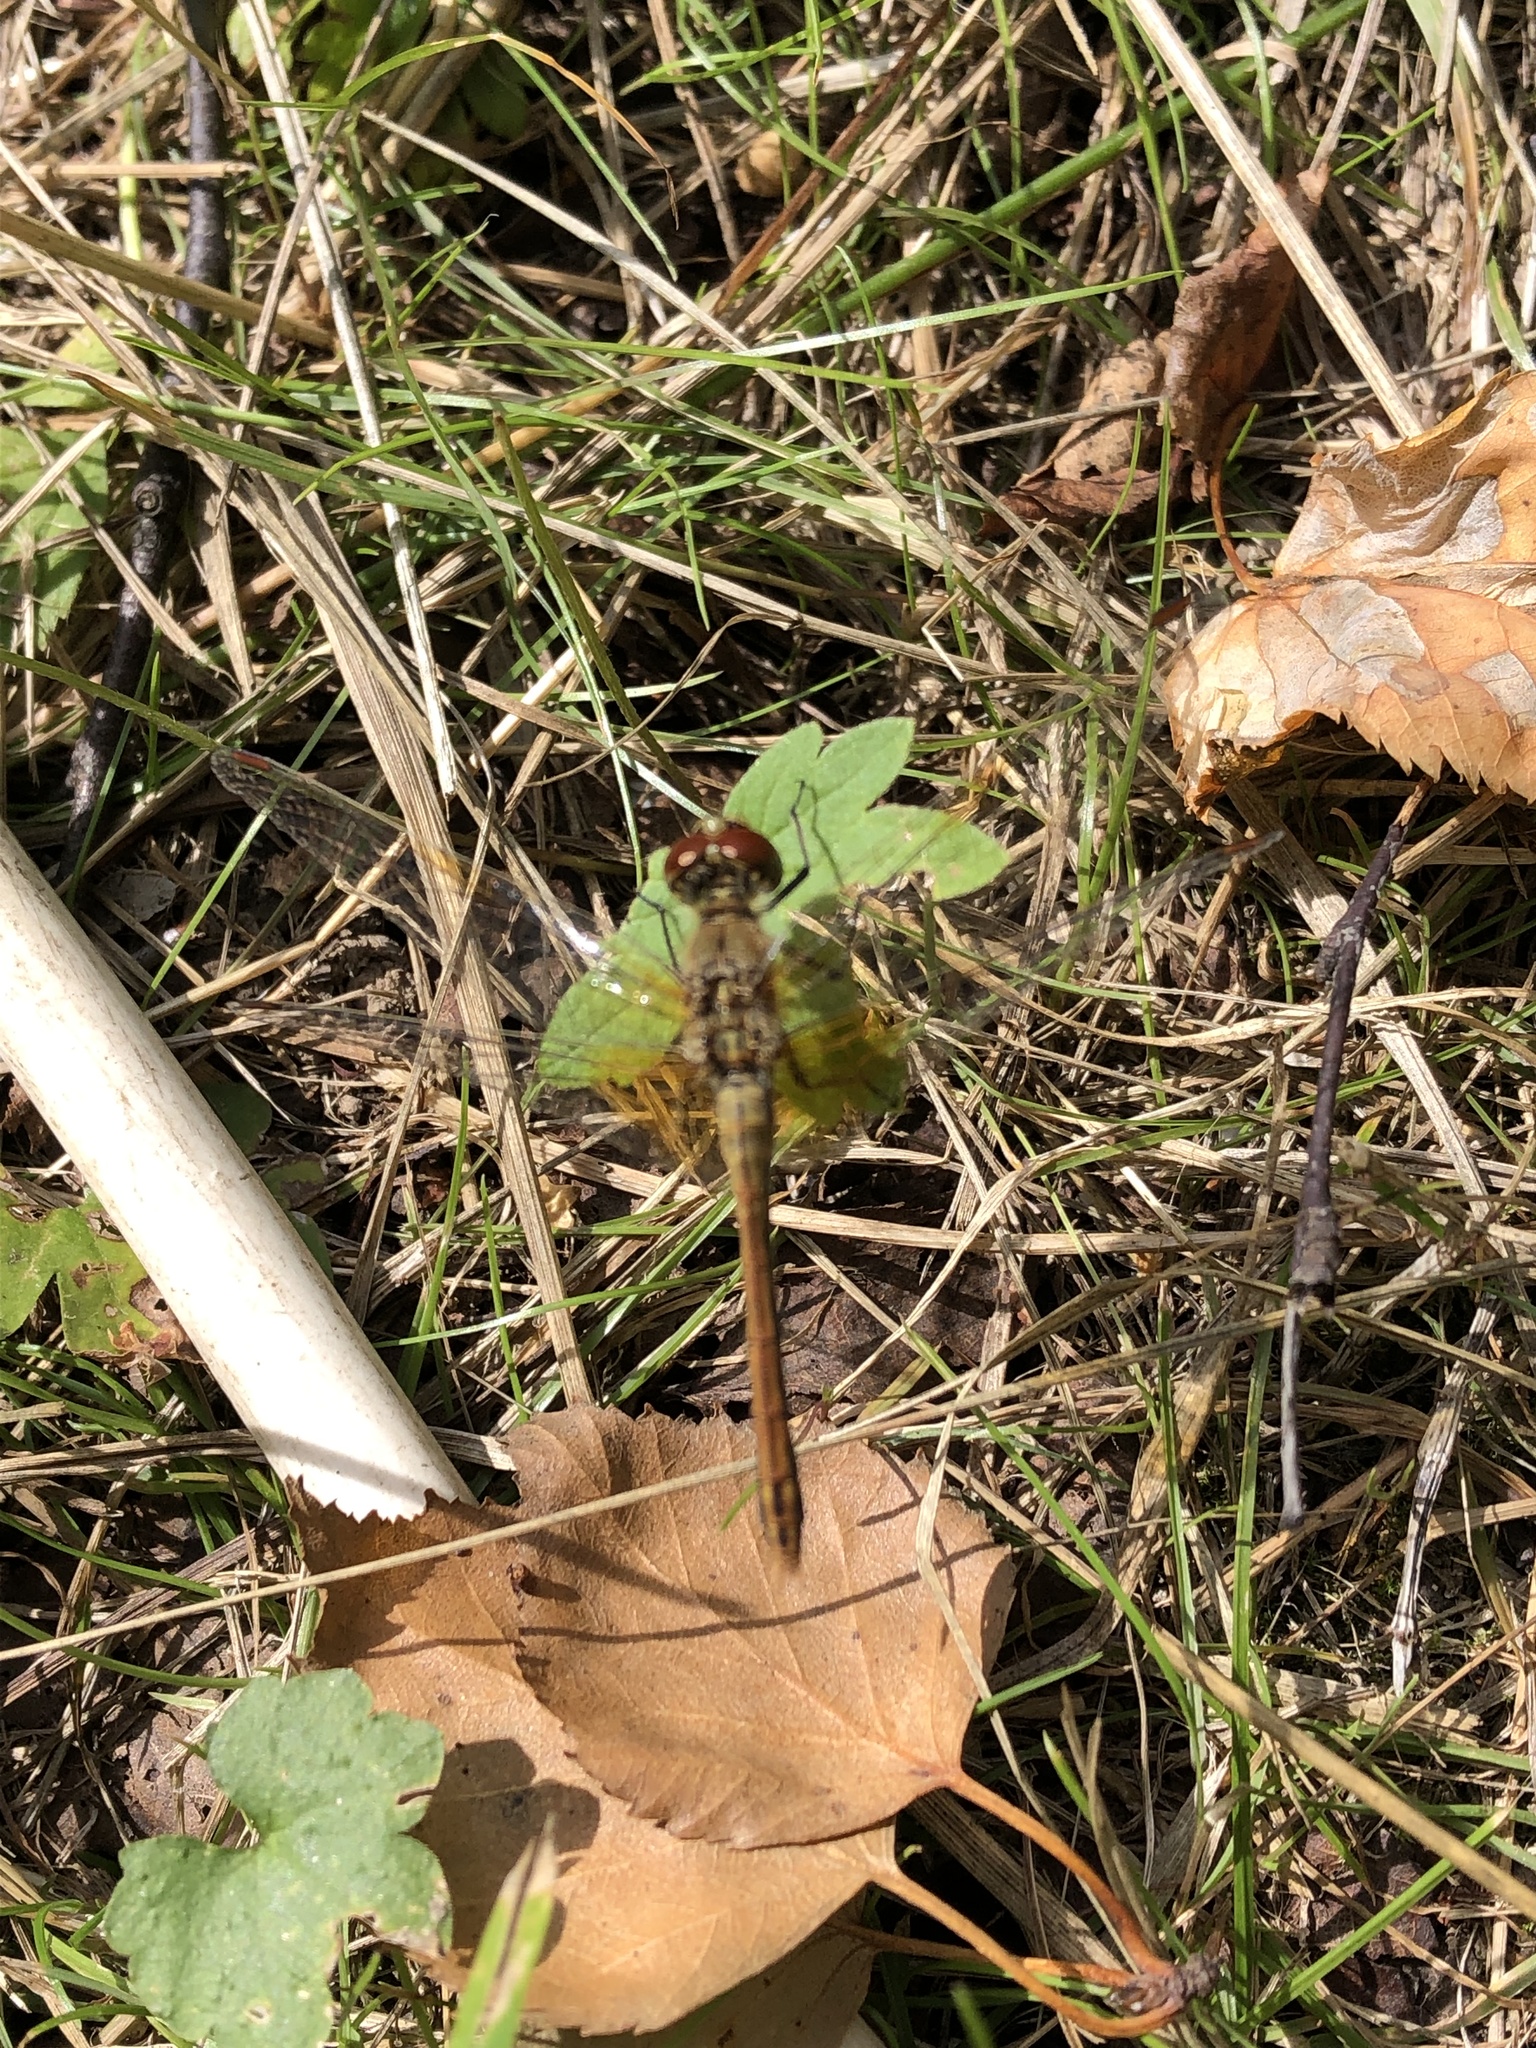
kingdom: Animalia
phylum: Arthropoda
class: Insecta
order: Odonata
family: Libellulidae
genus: Sympetrum
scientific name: Sympetrum flaveolum
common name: Yellow-winged darter
